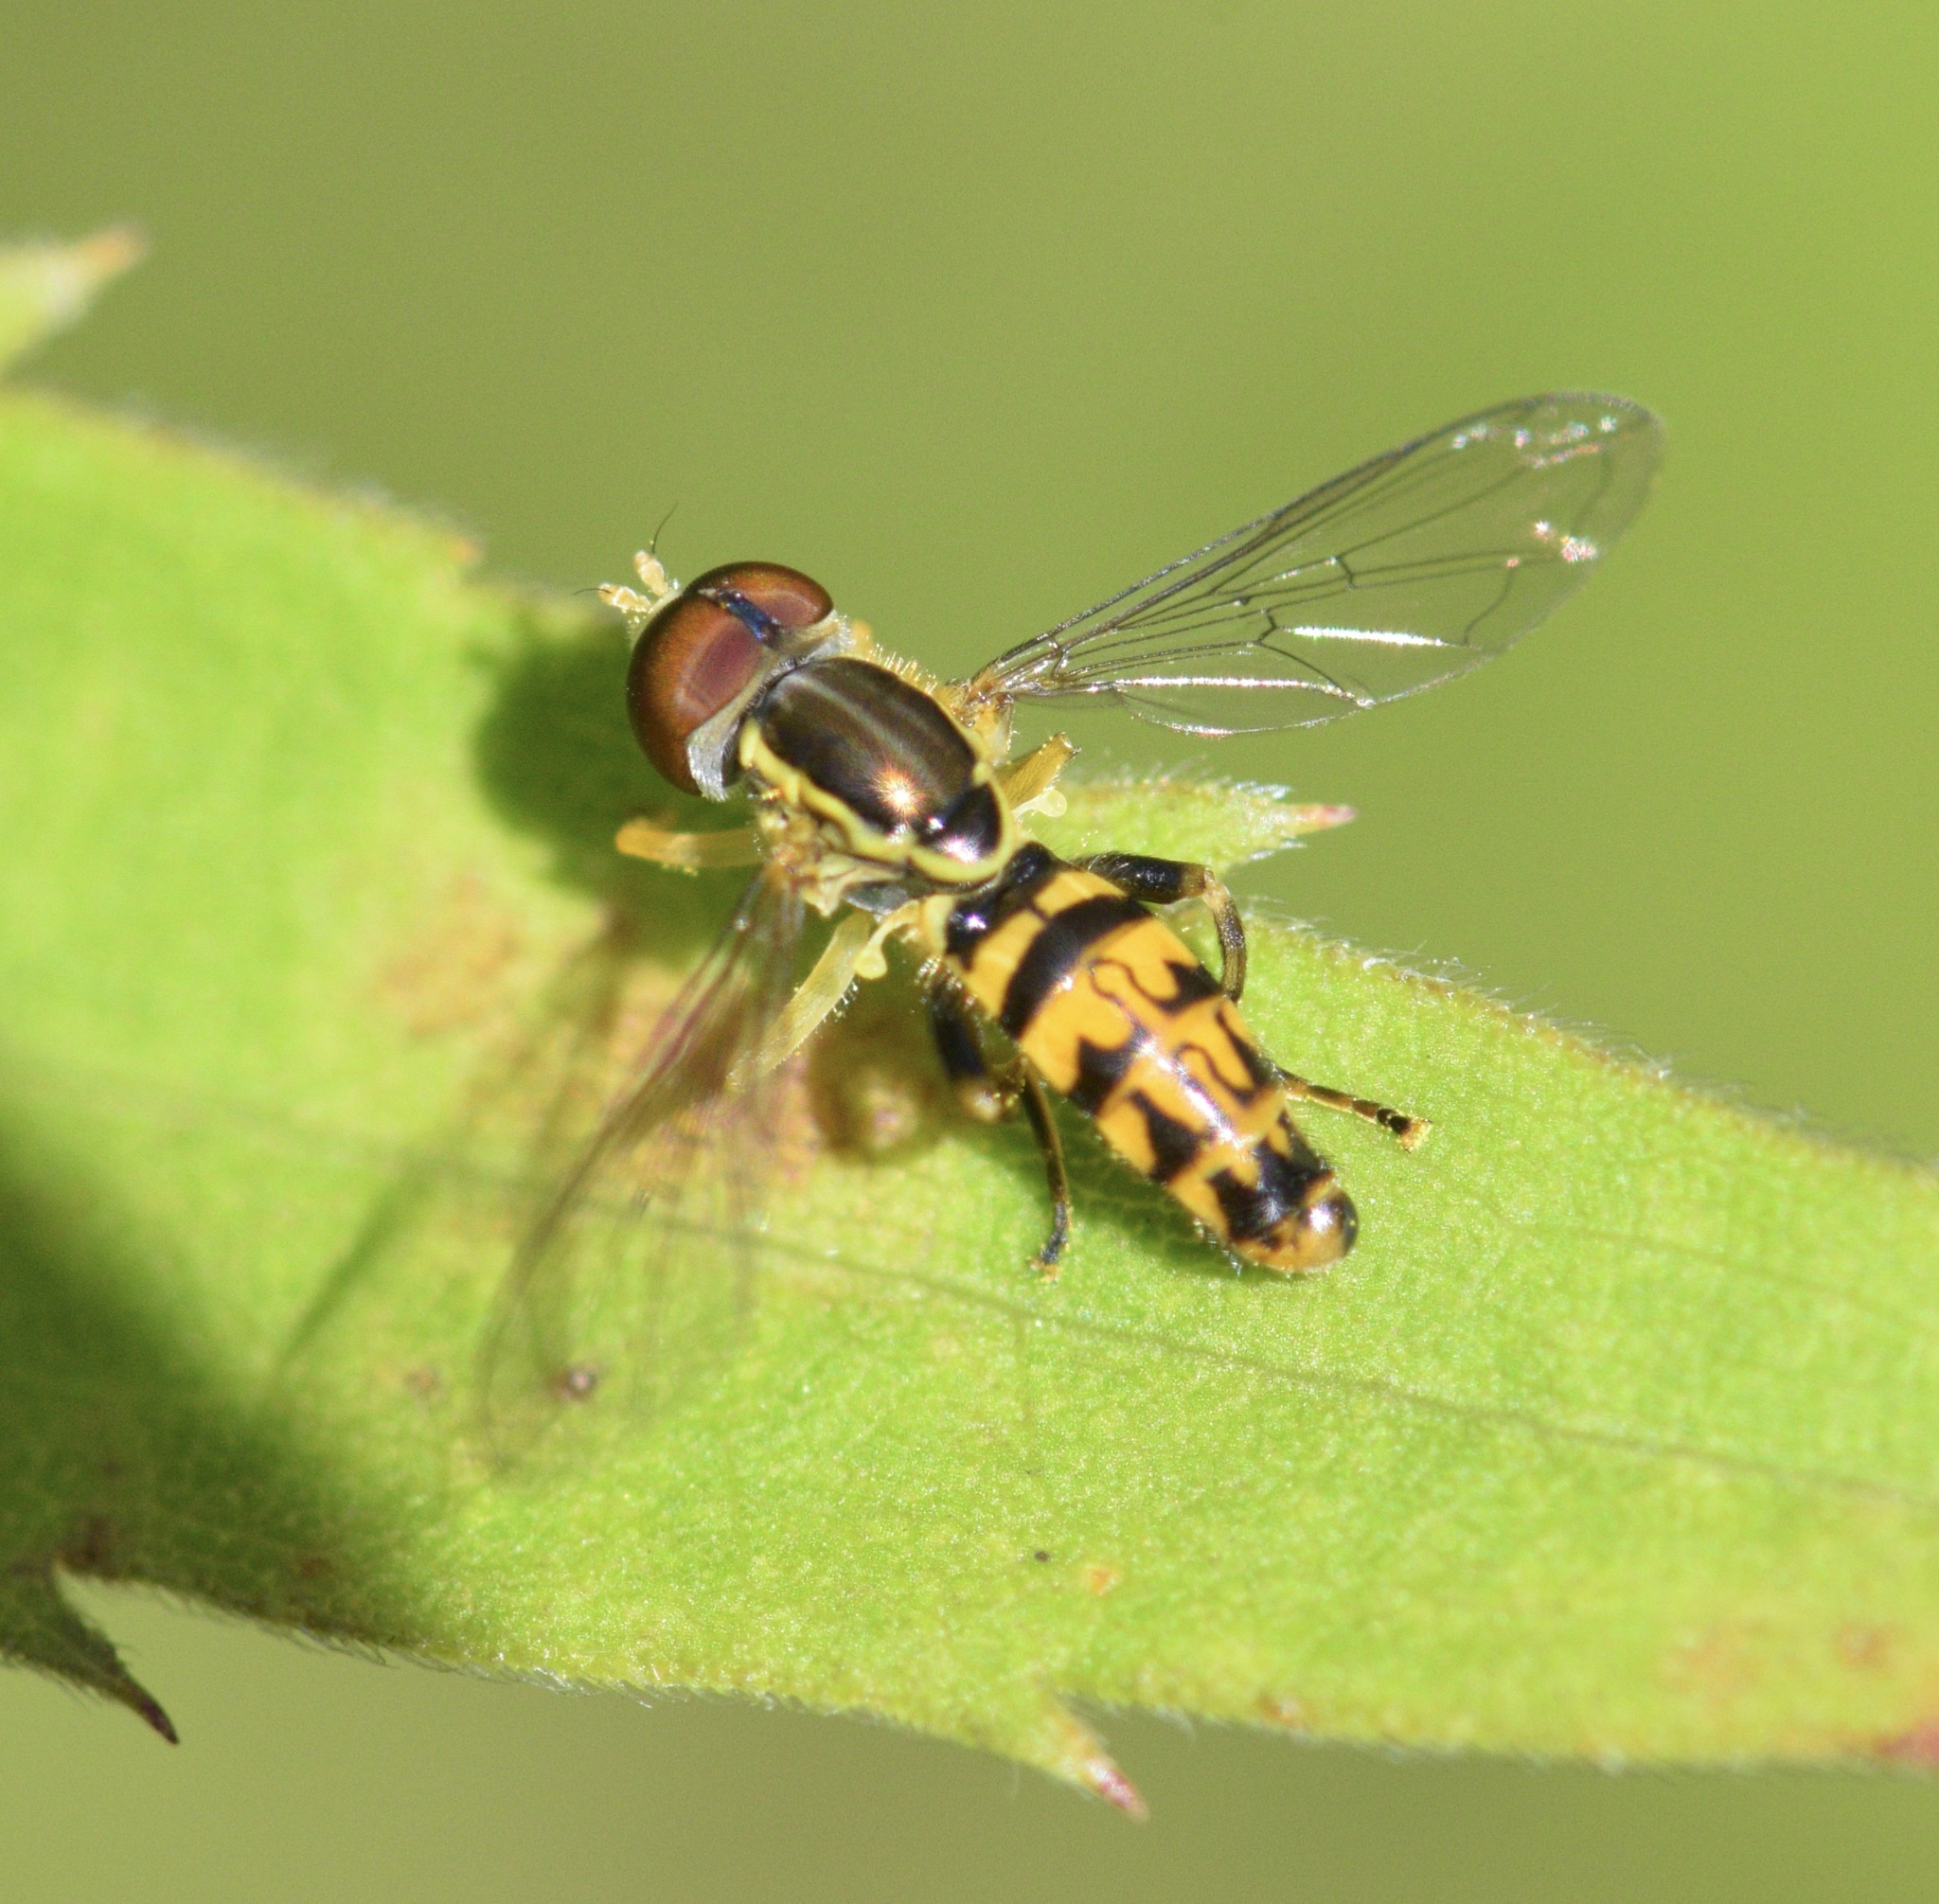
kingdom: Animalia
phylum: Arthropoda
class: Insecta
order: Diptera
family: Syrphidae
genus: Toxomerus
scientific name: Toxomerus geminatus
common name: Eastern calligrapher
